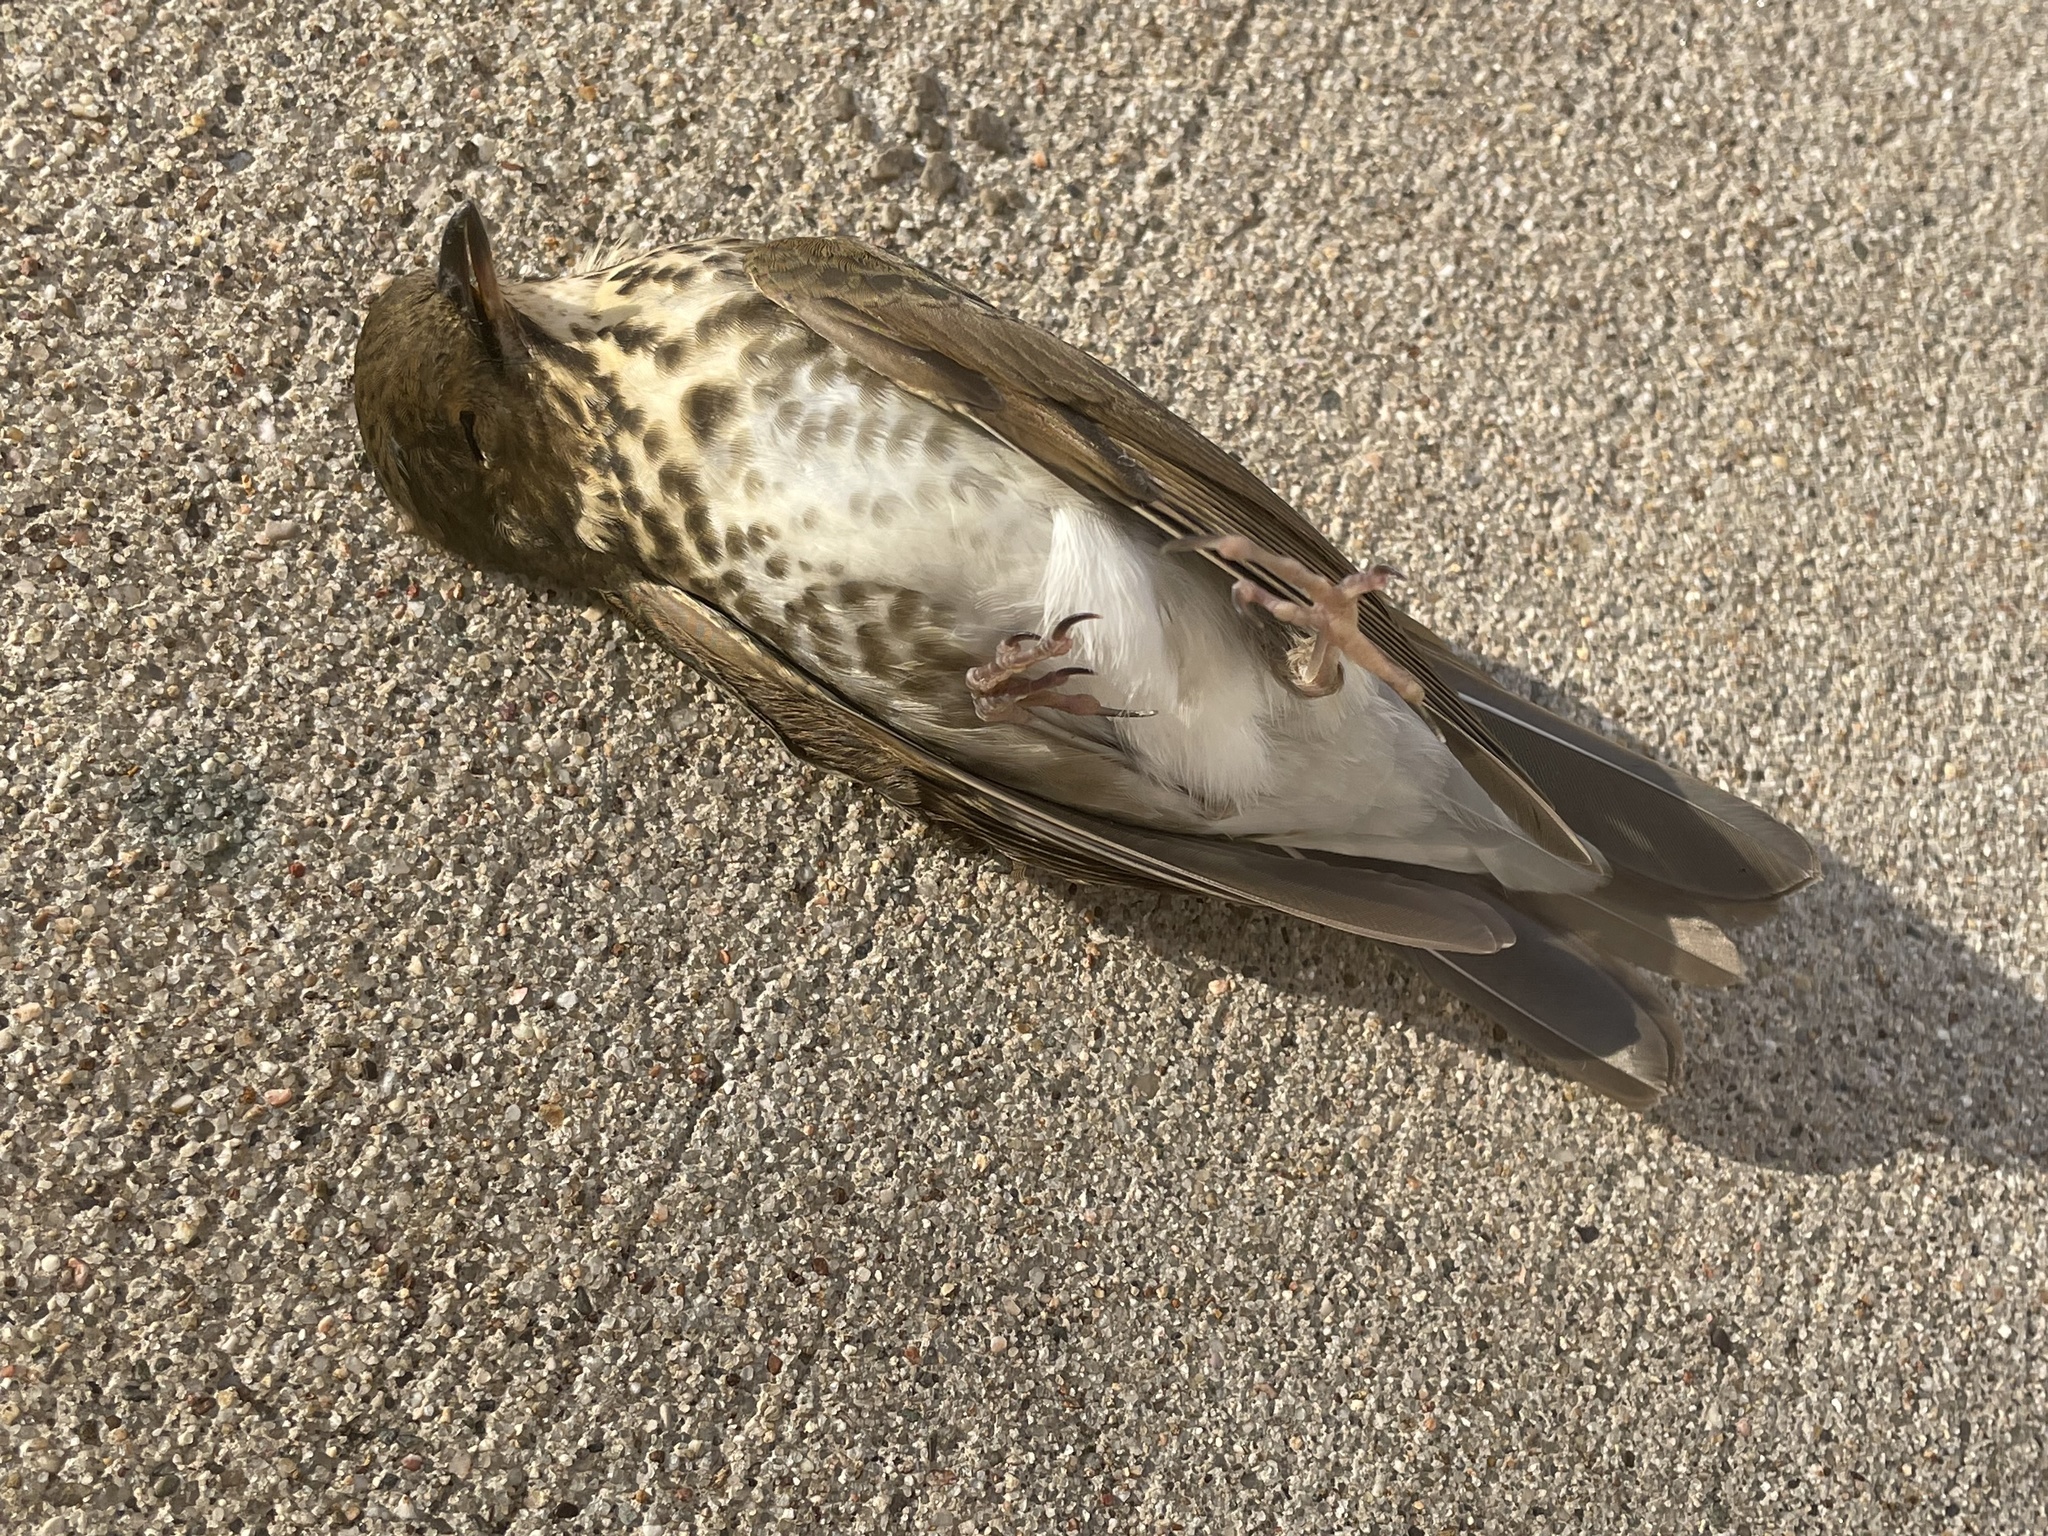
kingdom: Animalia
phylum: Chordata
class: Aves
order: Passeriformes
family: Turdidae
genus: Catharus
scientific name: Catharus ustulatus
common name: Swainson's thrush
